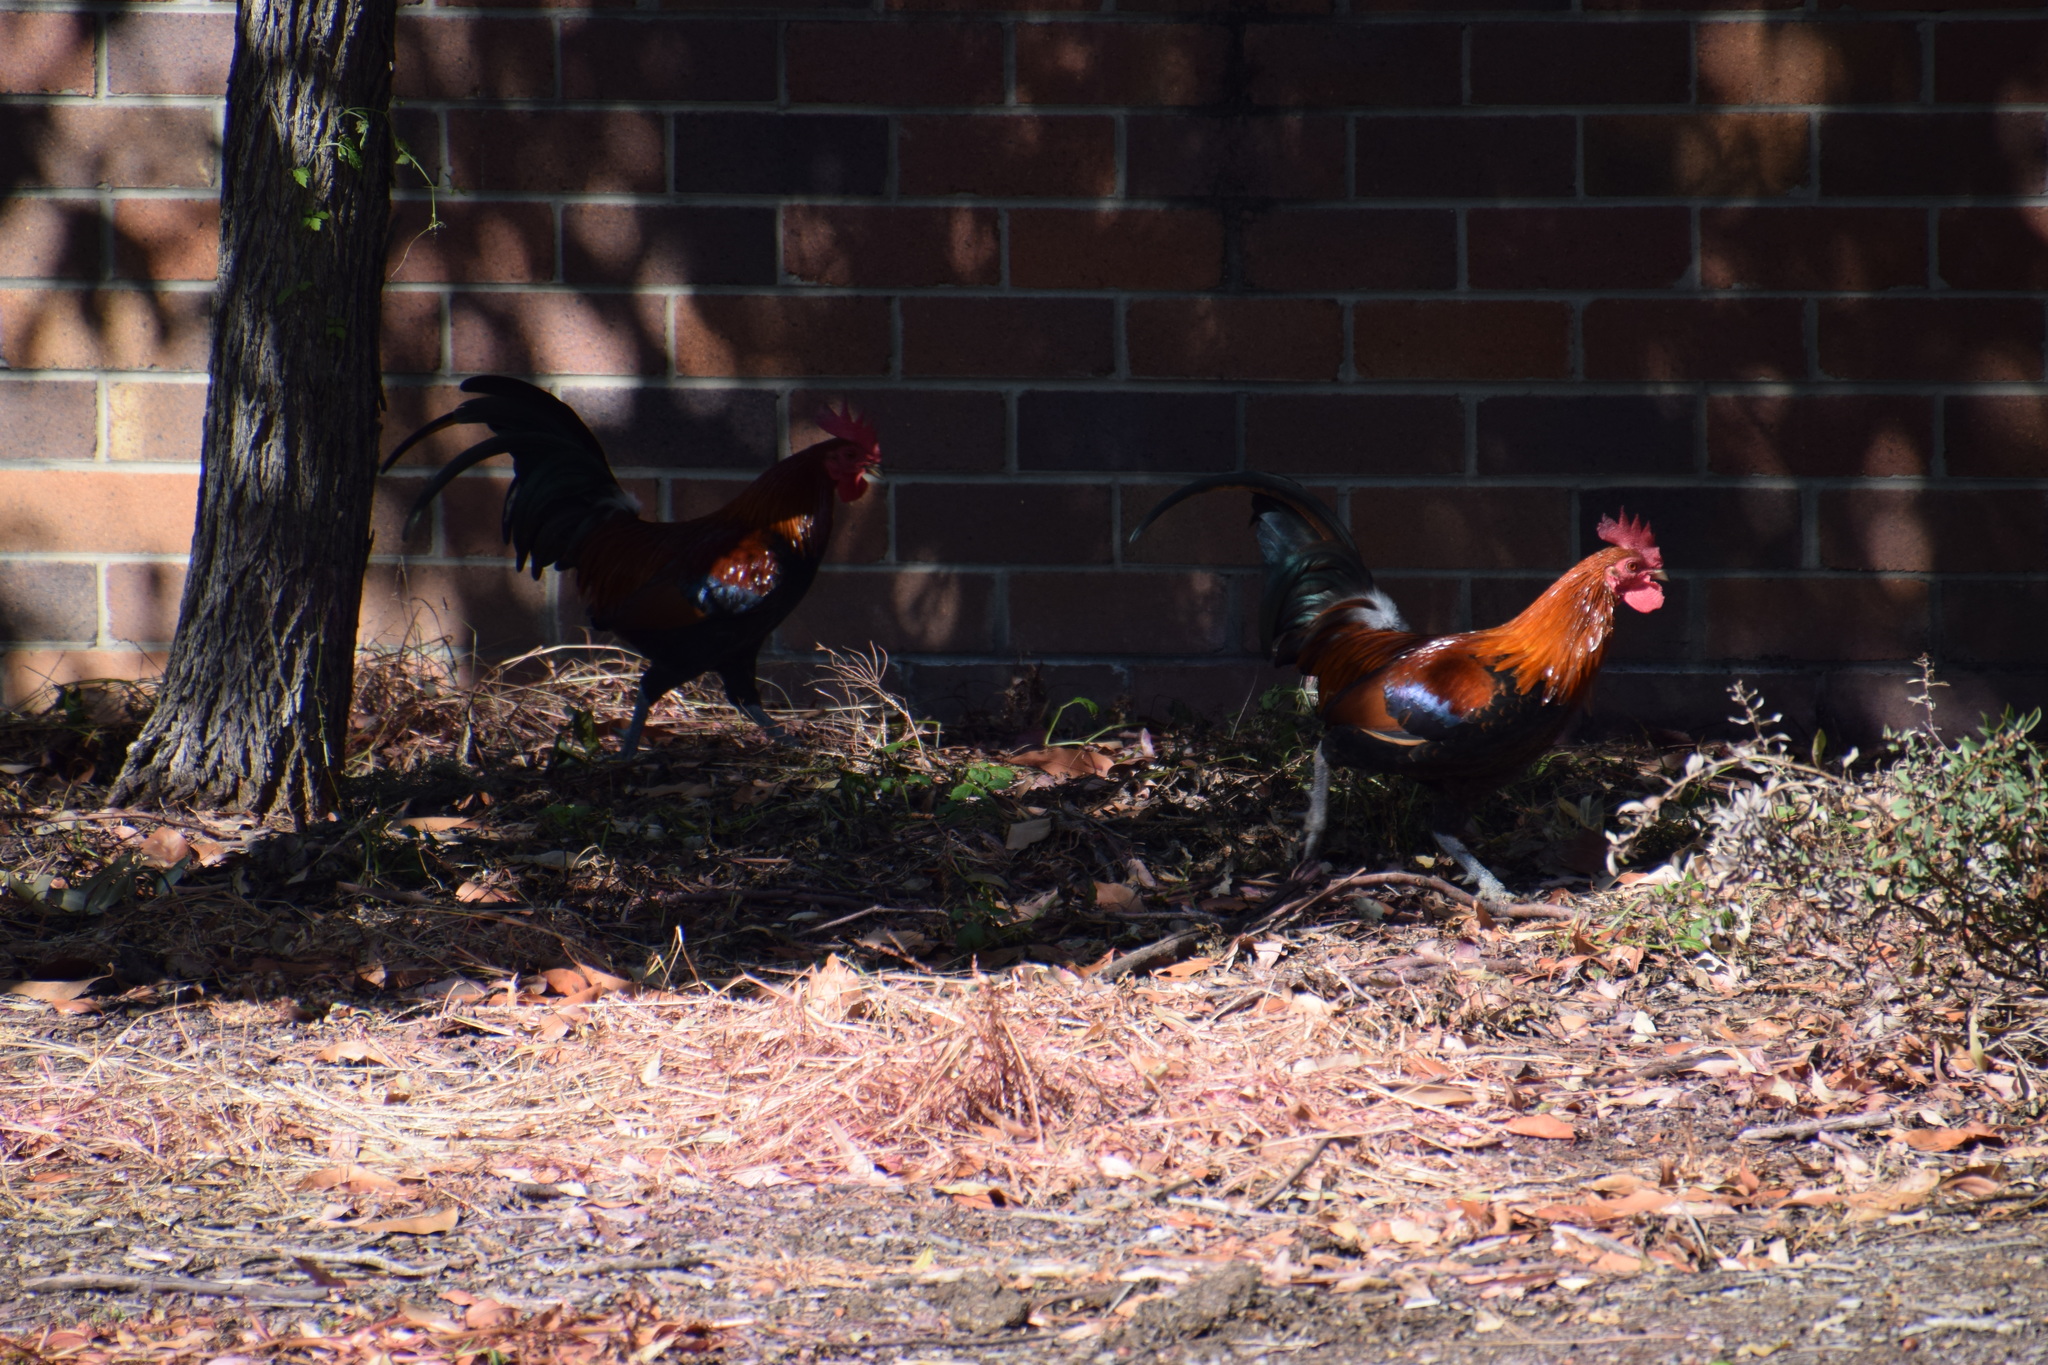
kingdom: Animalia
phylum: Chordata
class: Aves
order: Galliformes
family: Phasianidae
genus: Gallus
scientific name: Gallus gallus
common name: Red junglefowl
